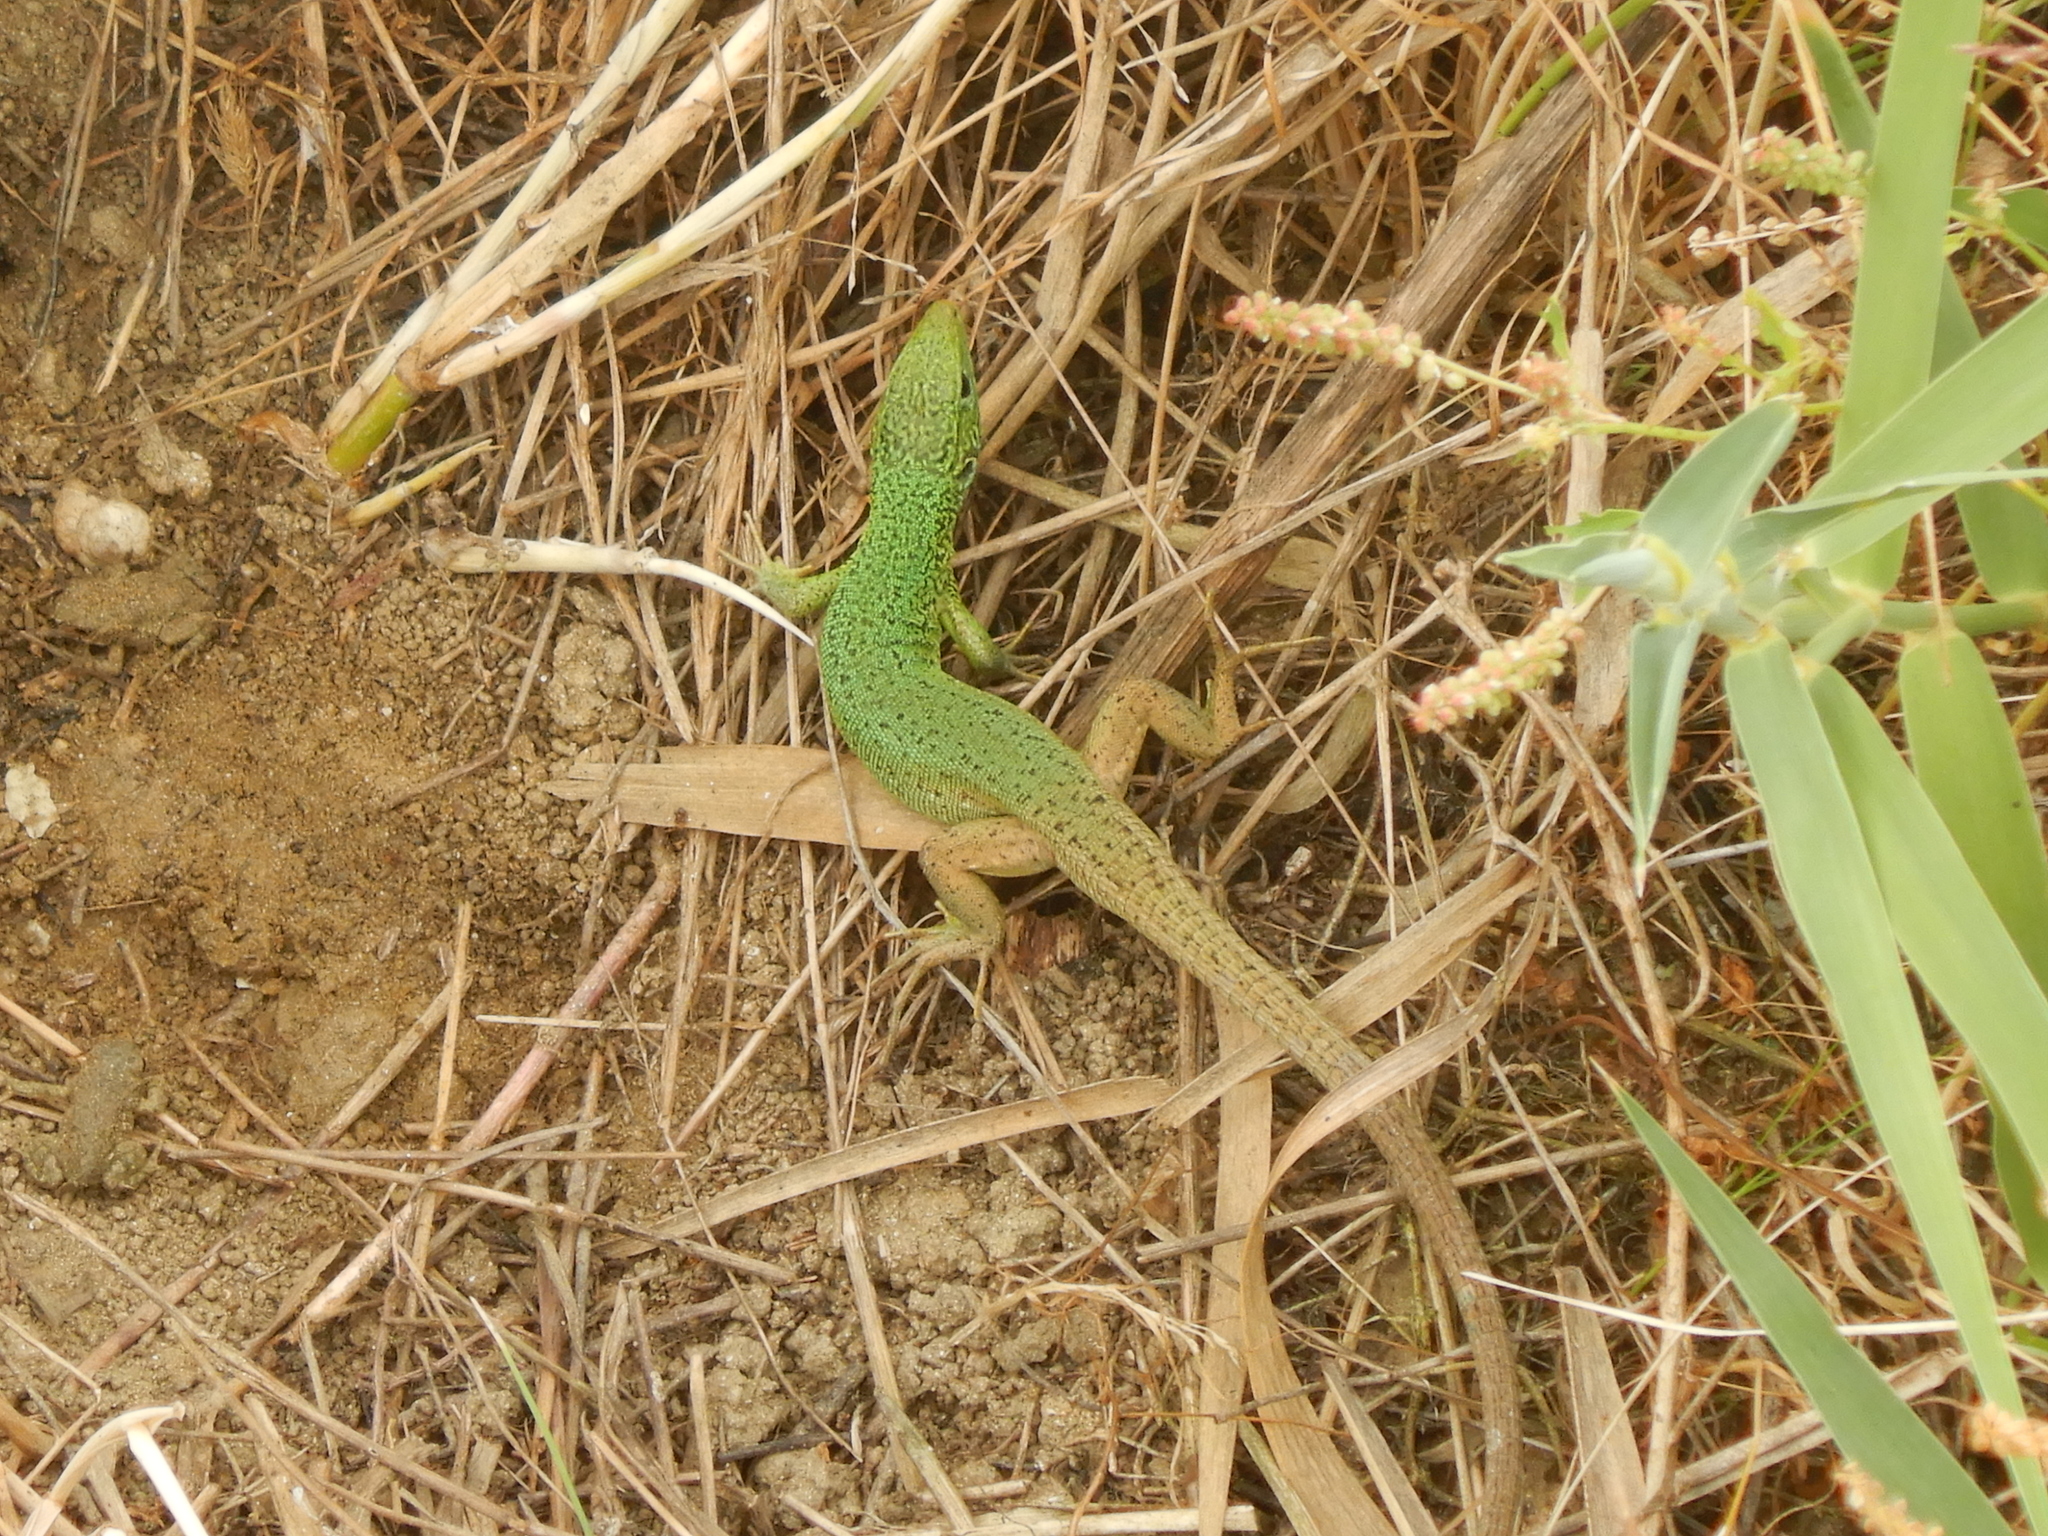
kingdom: Animalia
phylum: Chordata
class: Squamata
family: Lacertidae
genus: Lacerta
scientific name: Lacerta viridis
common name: European green lizard
